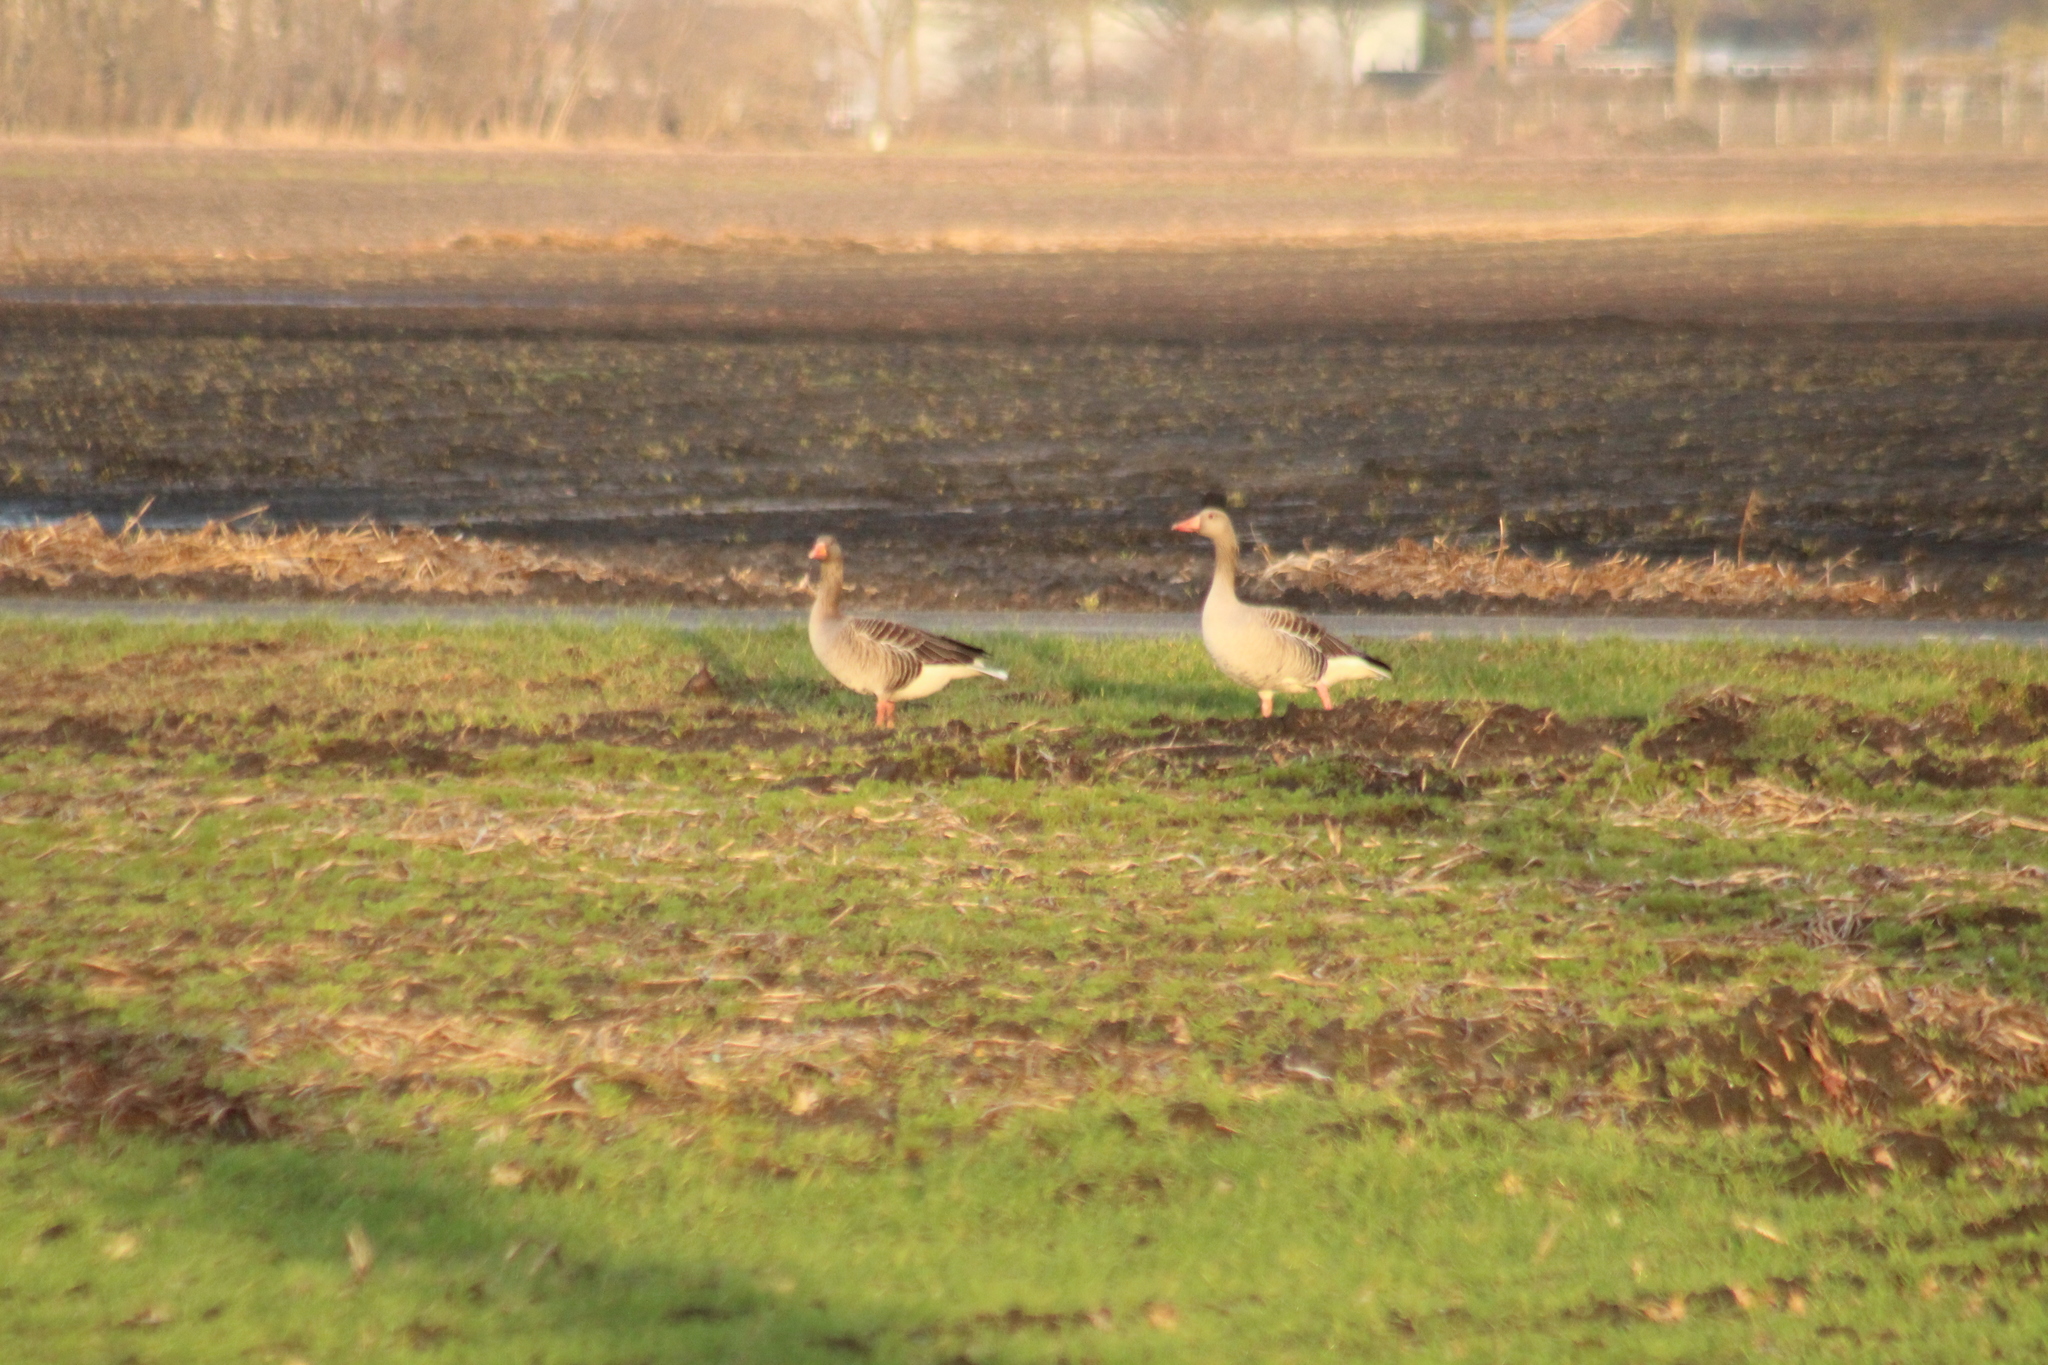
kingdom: Animalia
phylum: Chordata
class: Aves
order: Anseriformes
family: Anatidae
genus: Anser
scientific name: Anser anser
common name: Greylag goose
